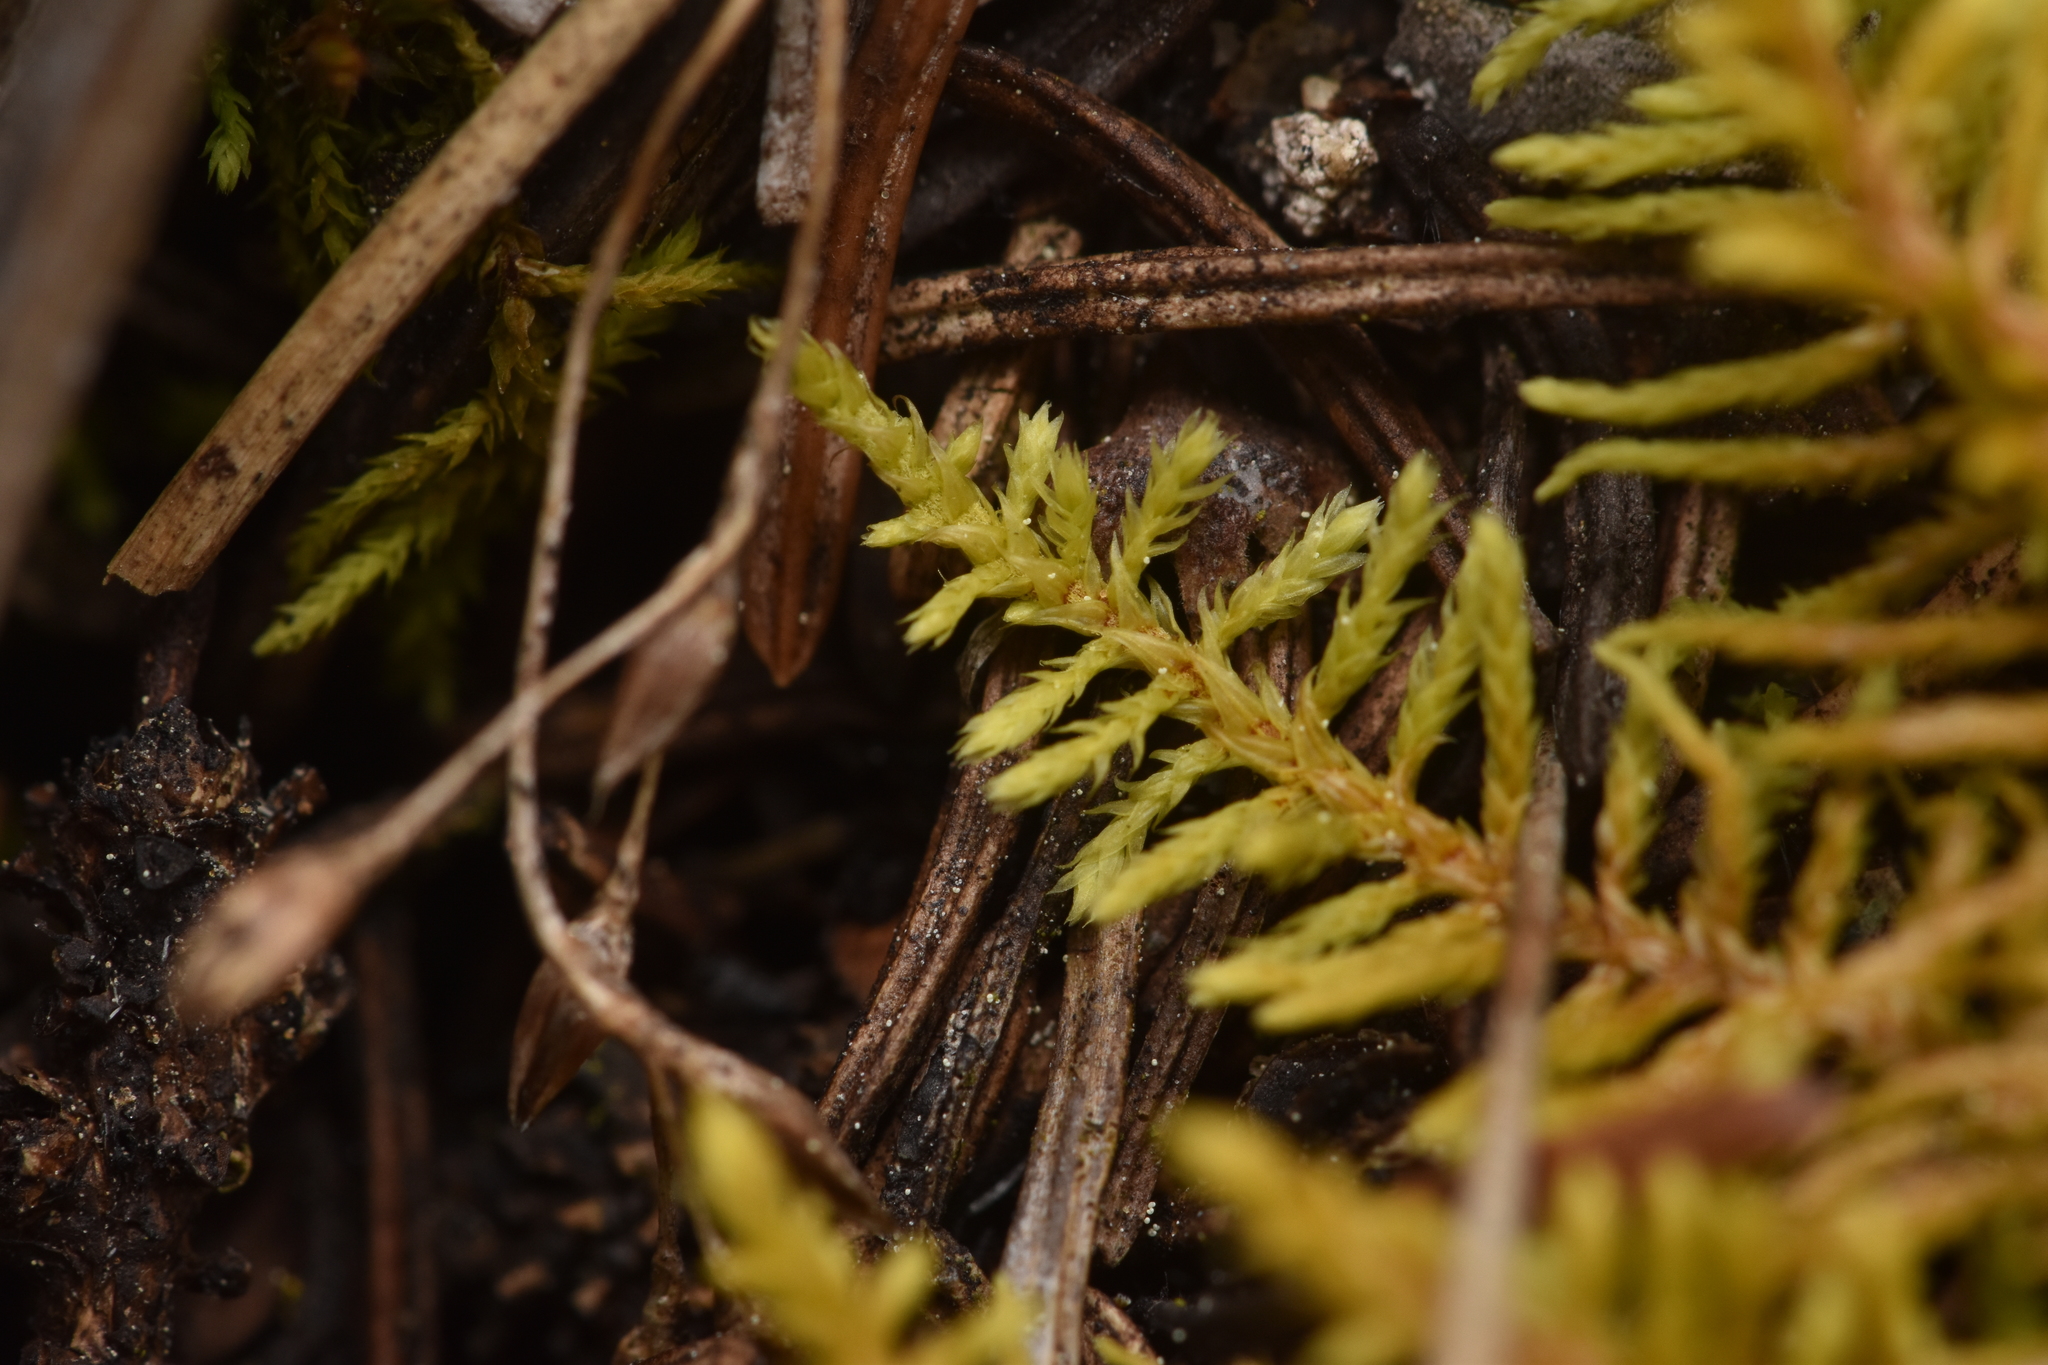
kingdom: Plantae
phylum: Bryophyta
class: Bryopsida
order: Hypnales
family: Thuidiaceae
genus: Abietinella
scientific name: Abietinella abietina
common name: Wiry fern moss
